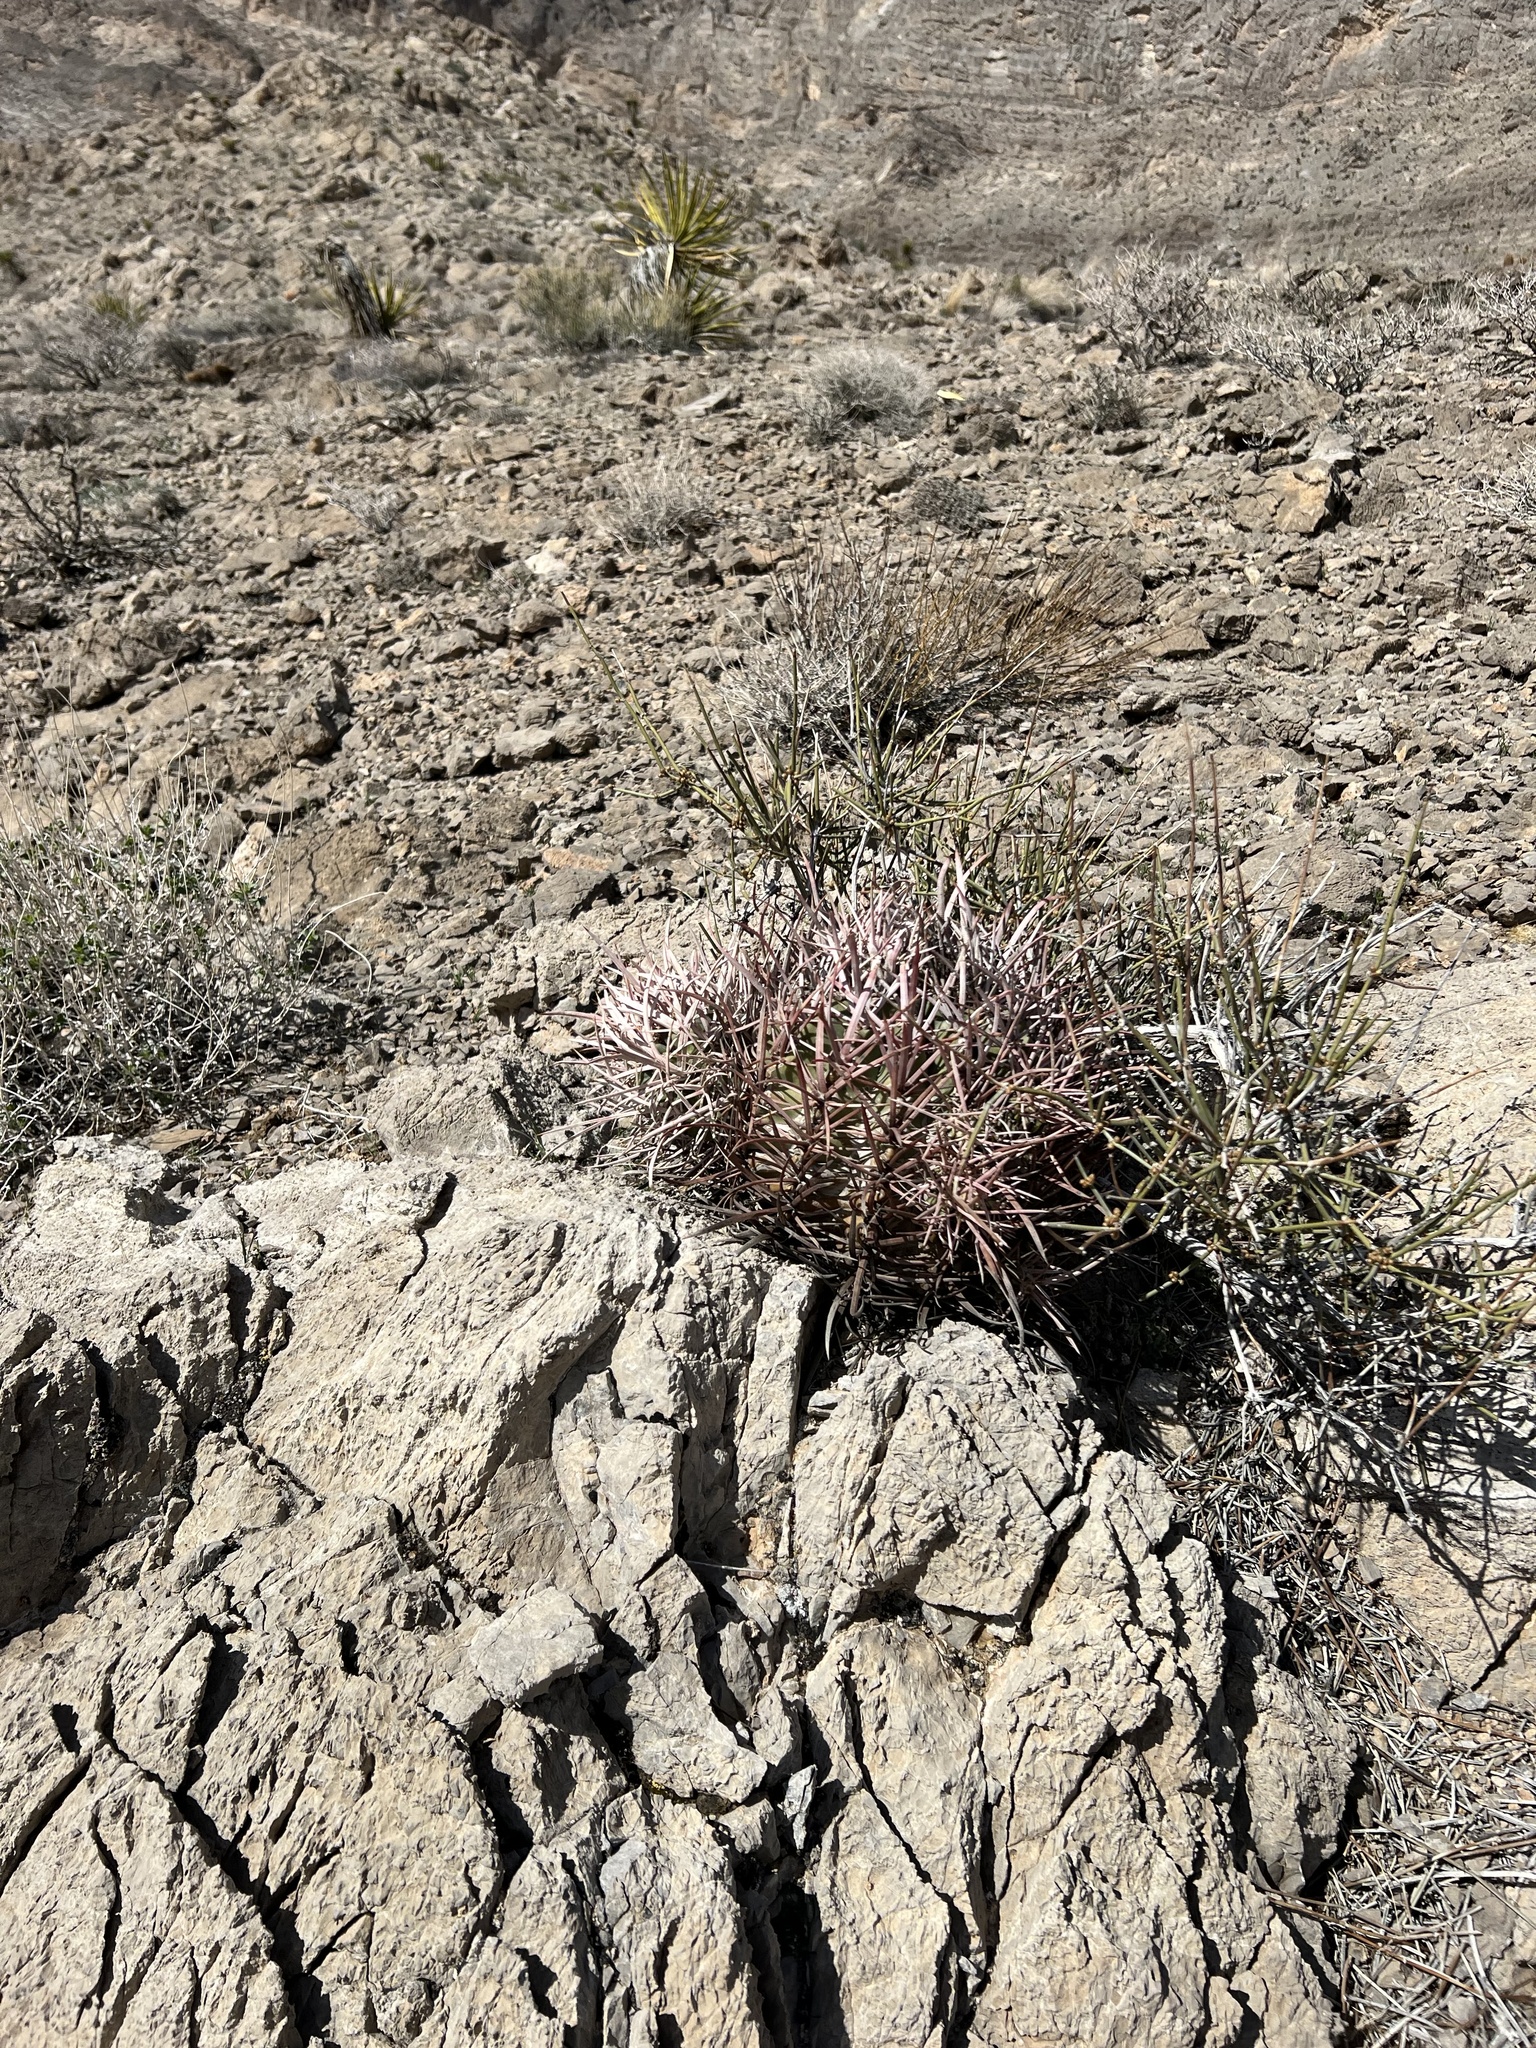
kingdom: Plantae
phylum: Tracheophyta
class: Magnoliopsida
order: Caryophyllales
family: Cactaceae
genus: Echinocactus
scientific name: Echinocactus polycephalus
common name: Cottontop cactus
